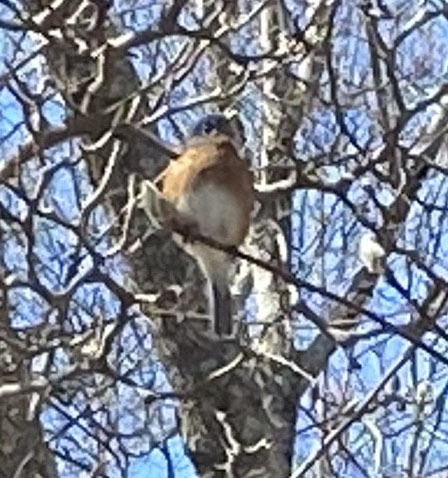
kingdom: Animalia
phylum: Chordata
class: Aves
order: Passeriformes
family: Turdidae
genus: Sialia
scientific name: Sialia sialis
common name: Eastern bluebird
